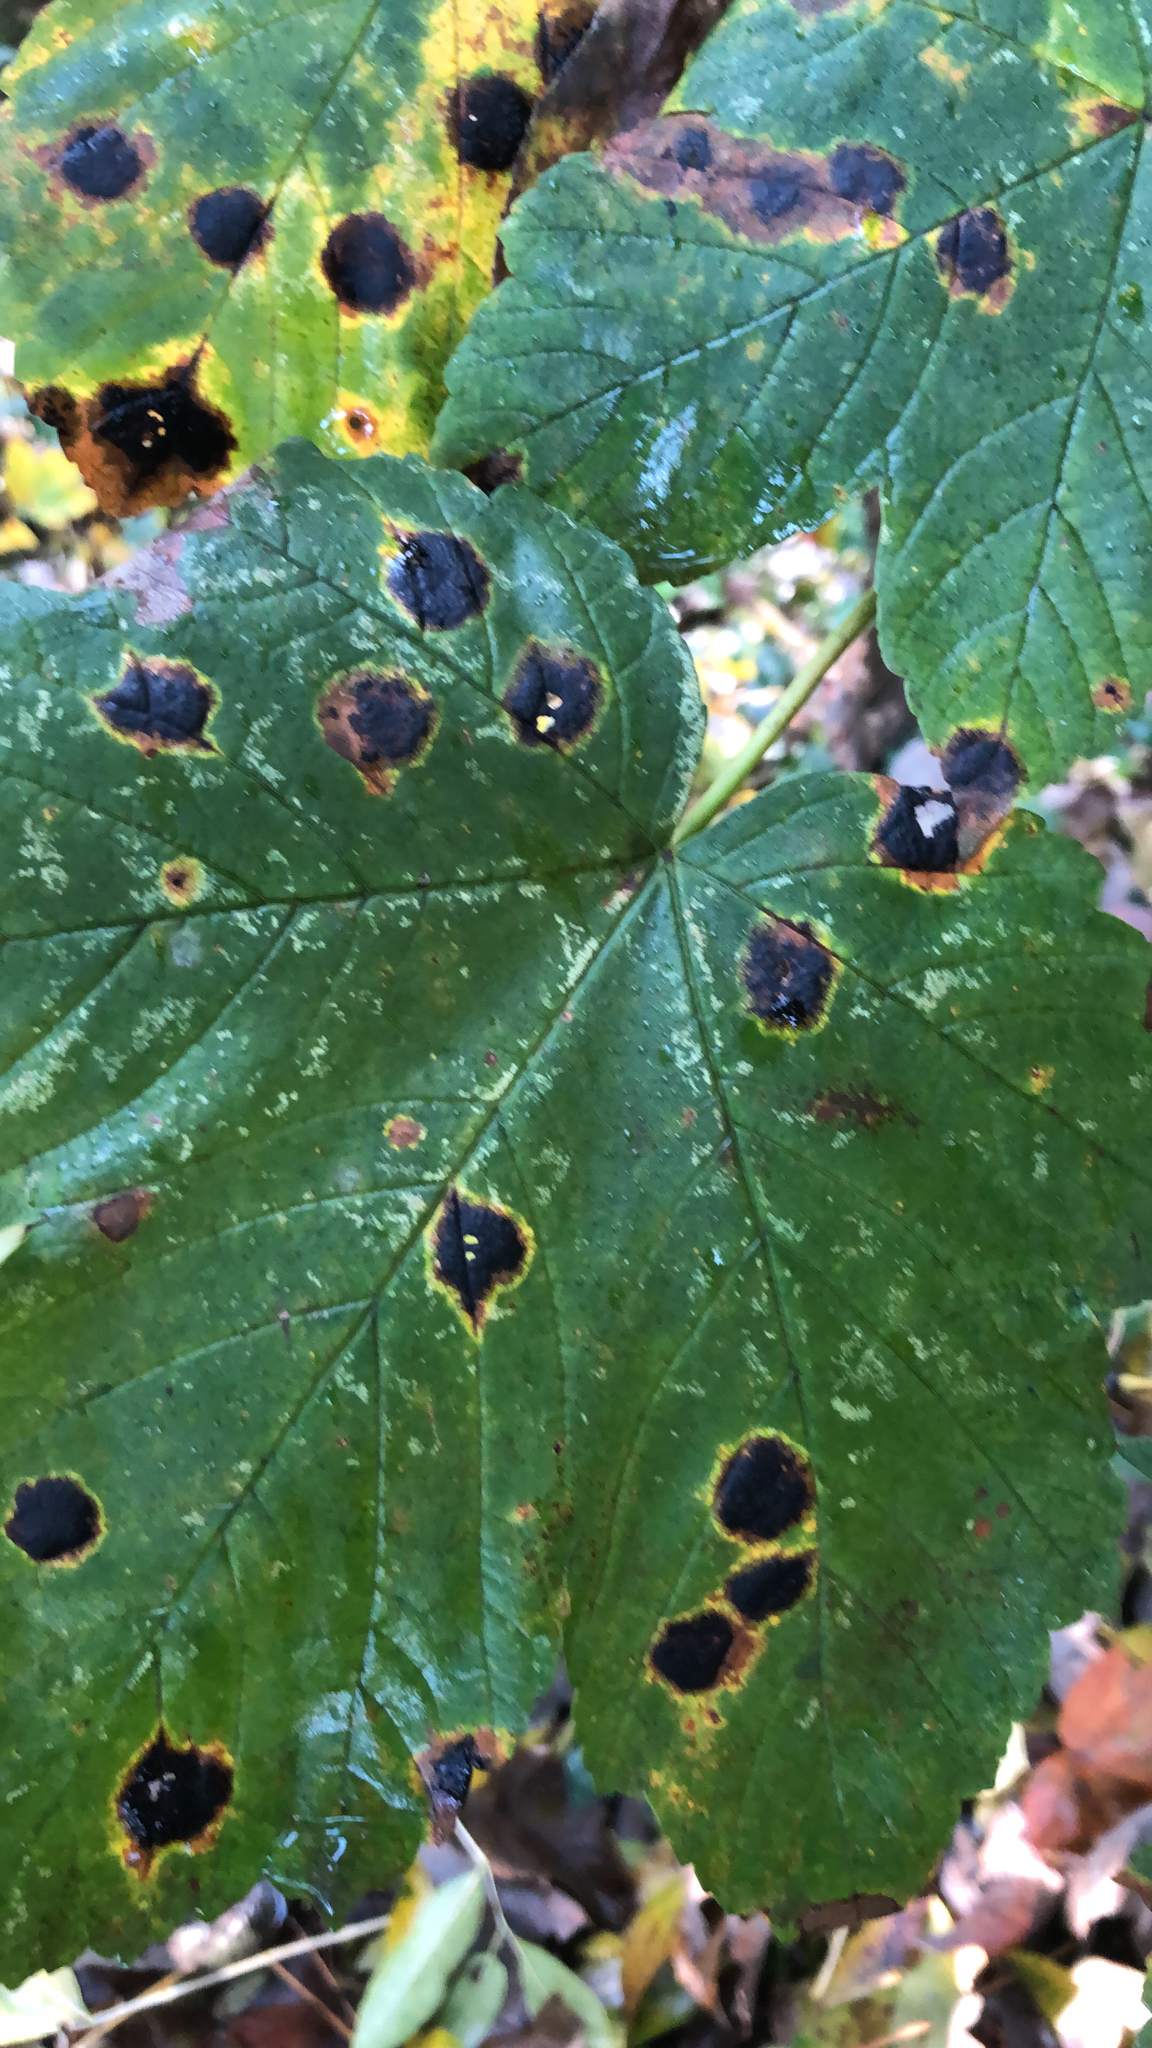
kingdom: Fungi
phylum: Ascomycota
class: Leotiomycetes
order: Rhytismatales
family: Rhytismataceae
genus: Rhytisma
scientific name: Rhytisma acerinum
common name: European tar spot
